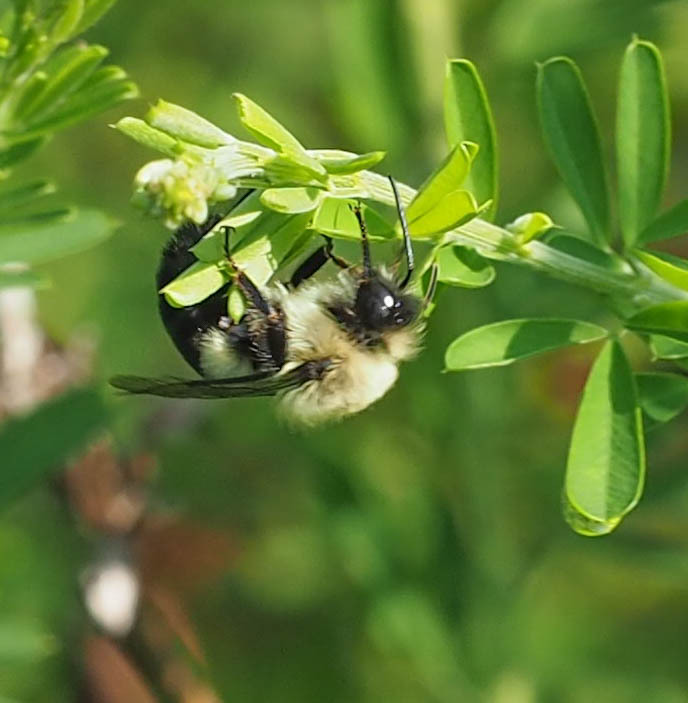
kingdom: Animalia
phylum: Arthropoda
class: Insecta
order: Hymenoptera
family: Apidae
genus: Bombus
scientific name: Bombus impatiens
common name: Common eastern bumble bee
